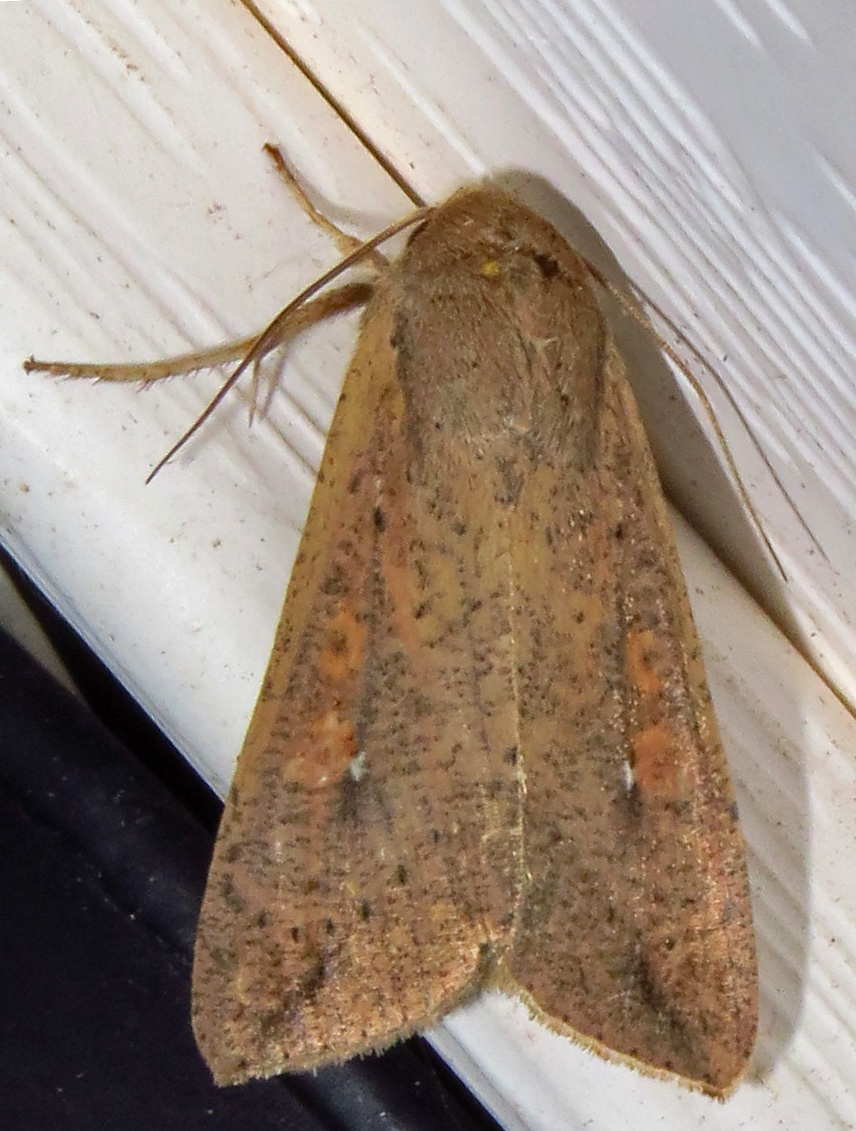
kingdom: Animalia
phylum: Arthropoda
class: Insecta
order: Lepidoptera
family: Noctuidae
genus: Mythimna
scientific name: Mythimna unipuncta
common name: White-speck
